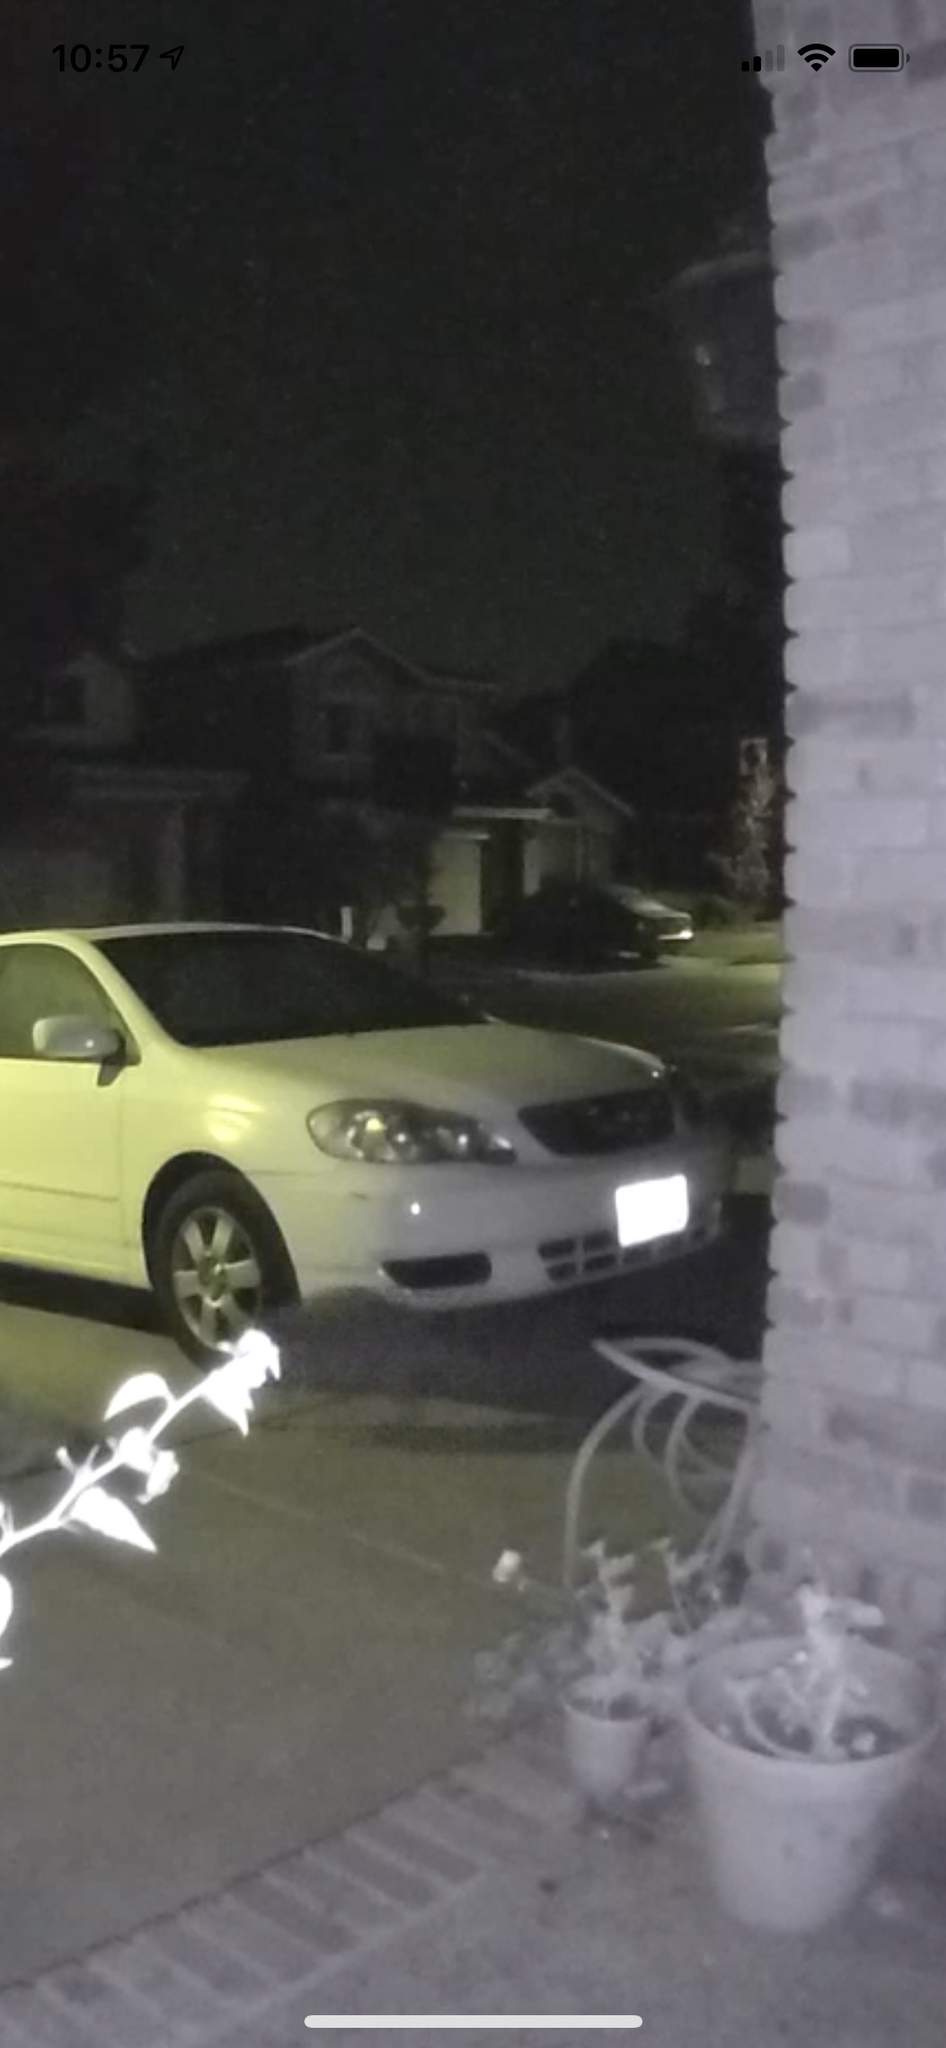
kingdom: Animalia
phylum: Chordata
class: Mammalia
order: Carnivora
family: Procyonidae
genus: Procyon
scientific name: Procyon lotor
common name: Raccoon
